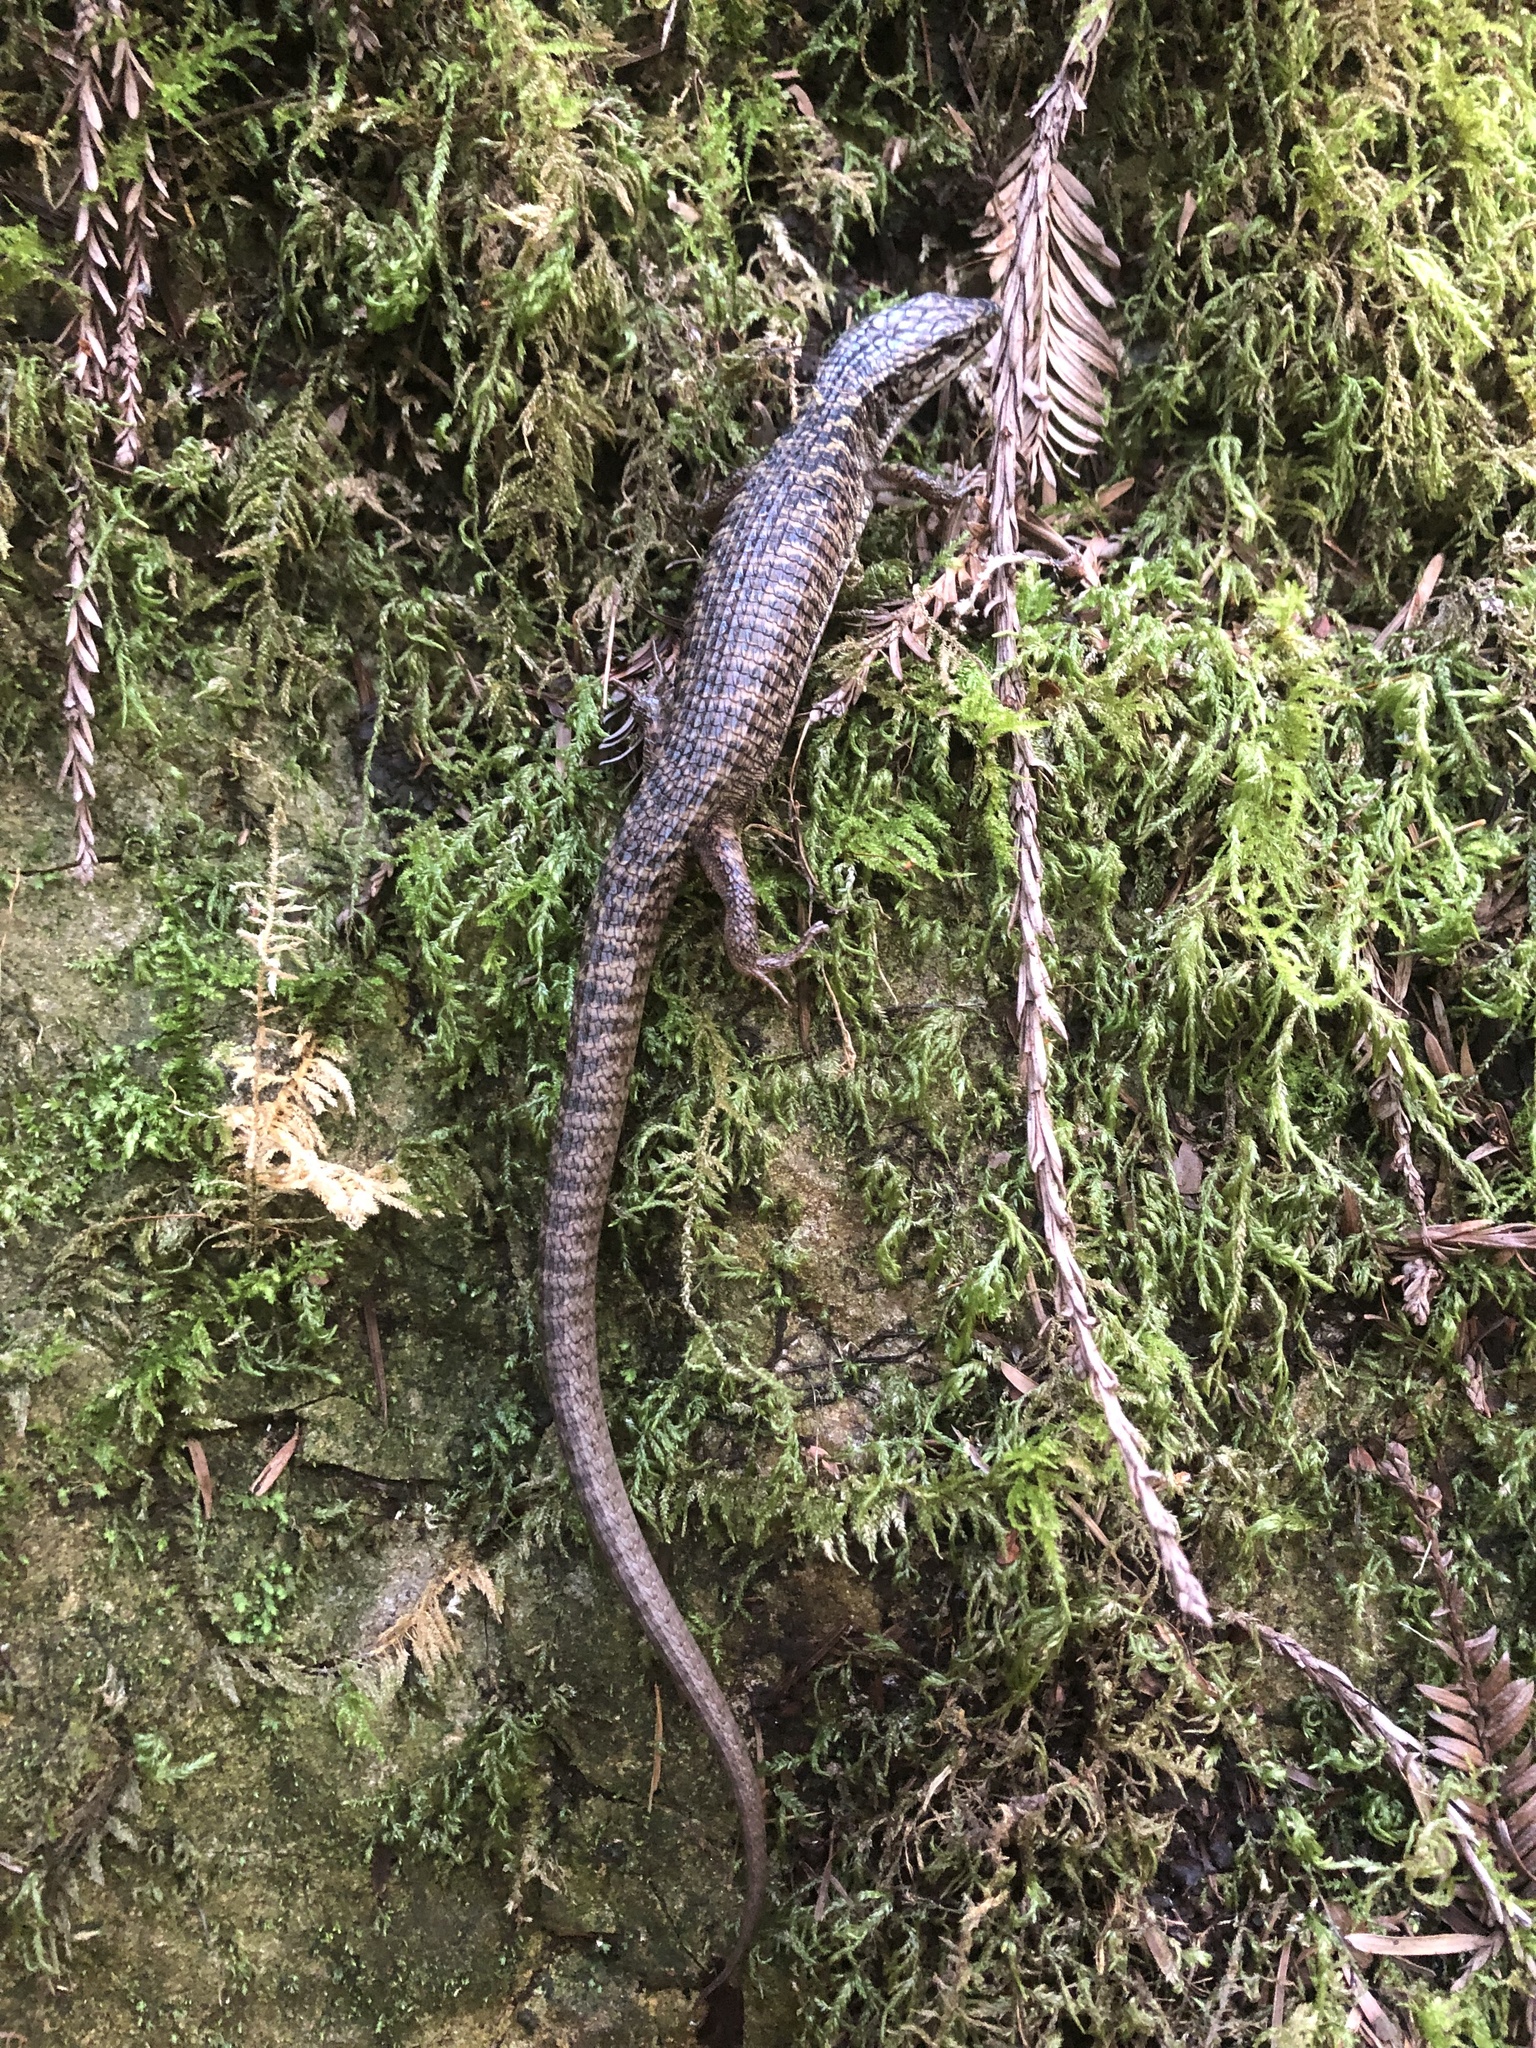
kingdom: Animalia
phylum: Chordata
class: Squamata
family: Anguidae
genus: Elgaria
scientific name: Elgaria coerulea
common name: Northern alligator lizard
